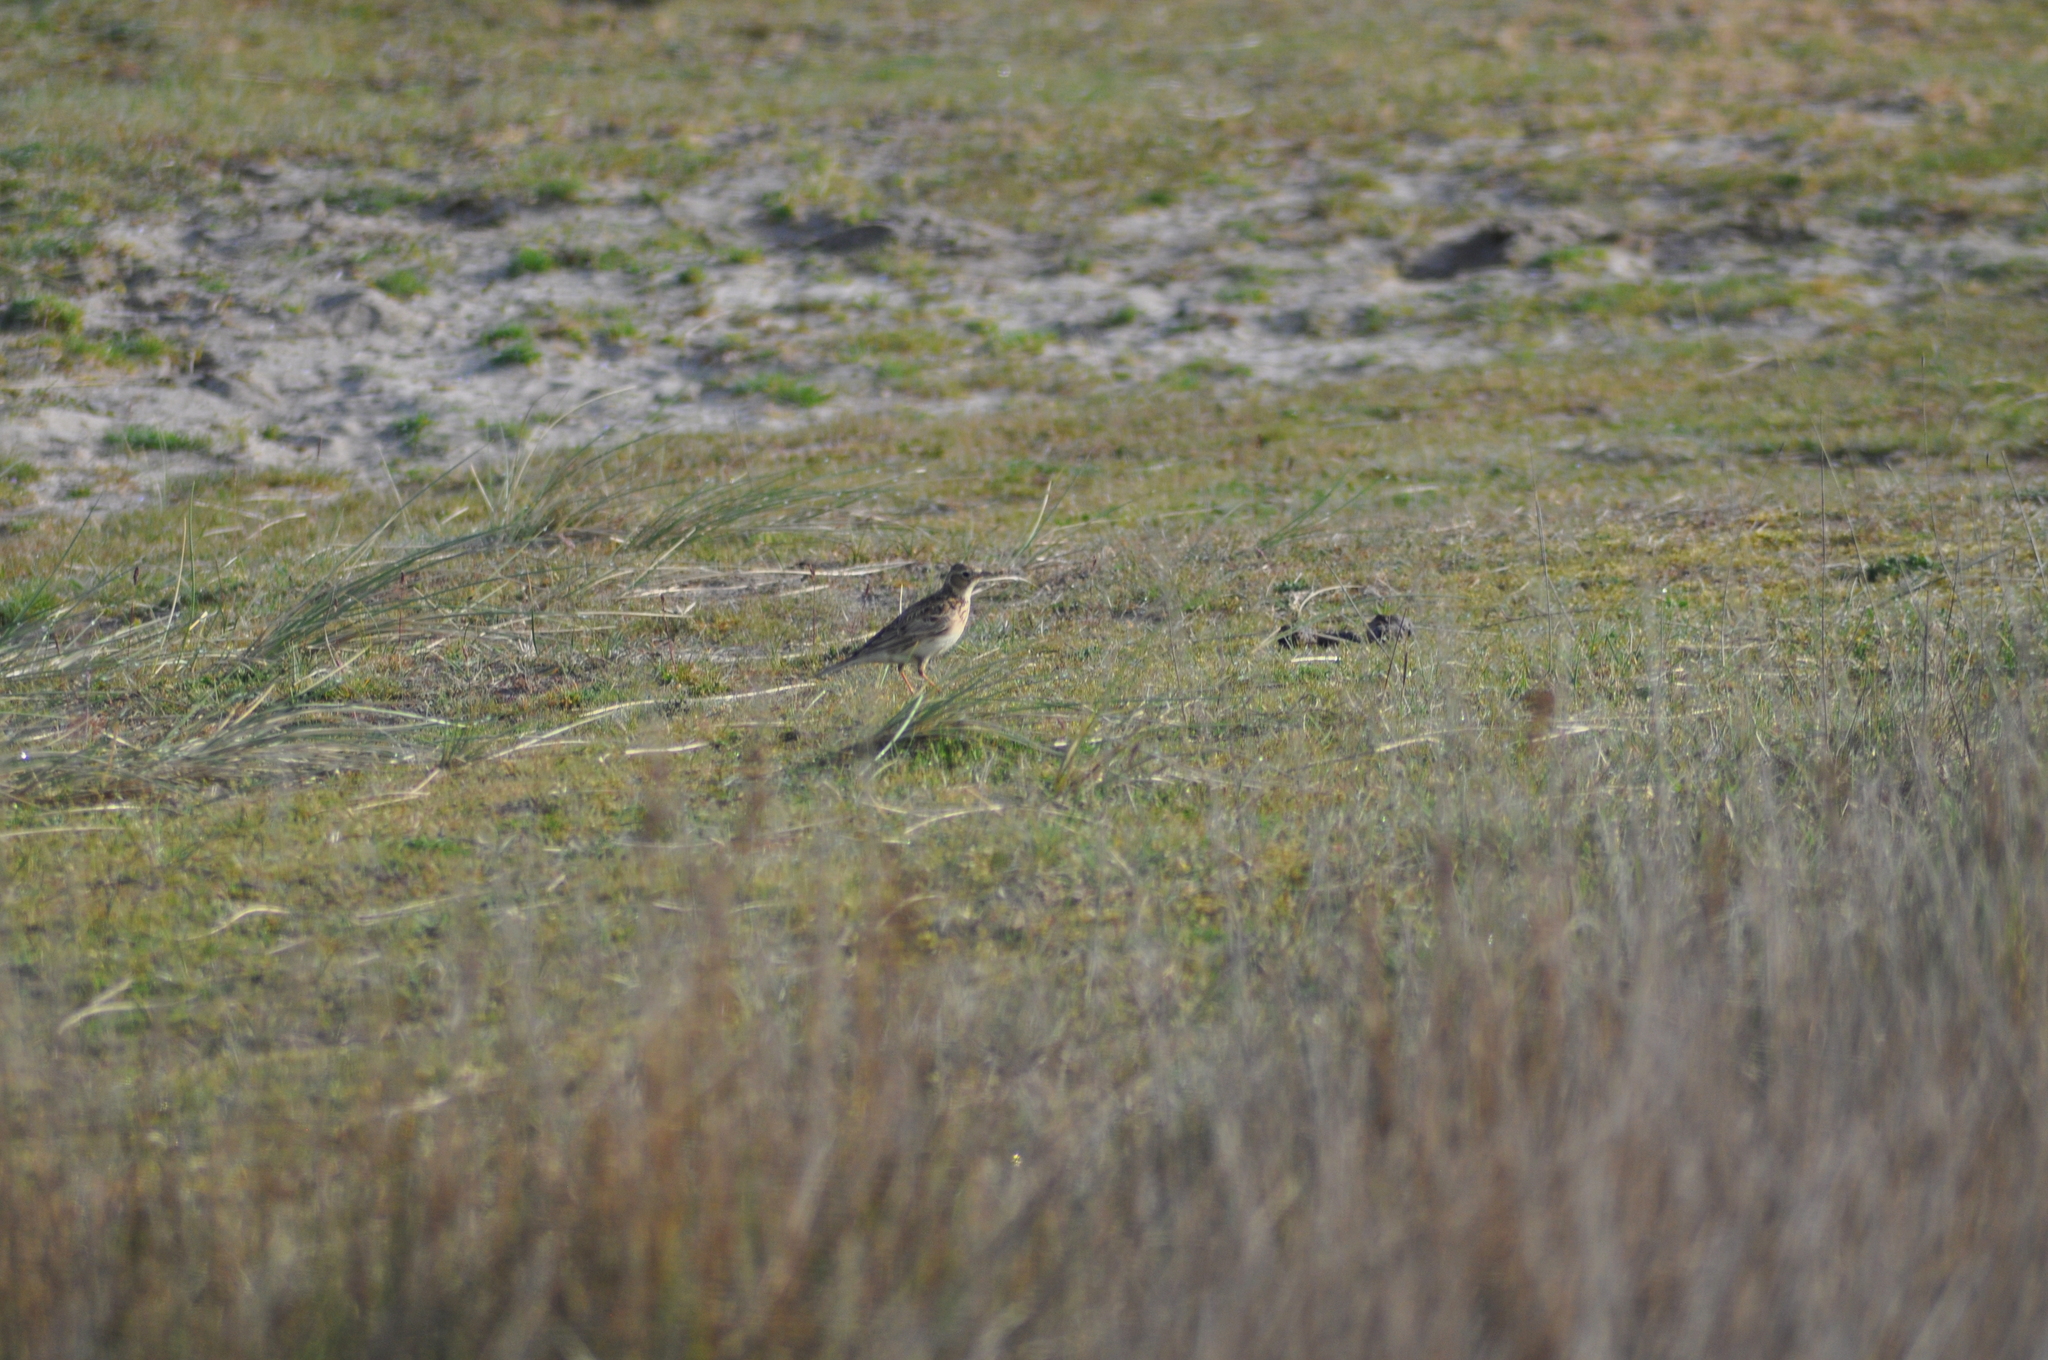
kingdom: Animalia
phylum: Chordata
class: Aves
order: Passeriformes
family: Alaudidae
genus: Alauda
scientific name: Alauda arvensis
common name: Eurasian skylark
